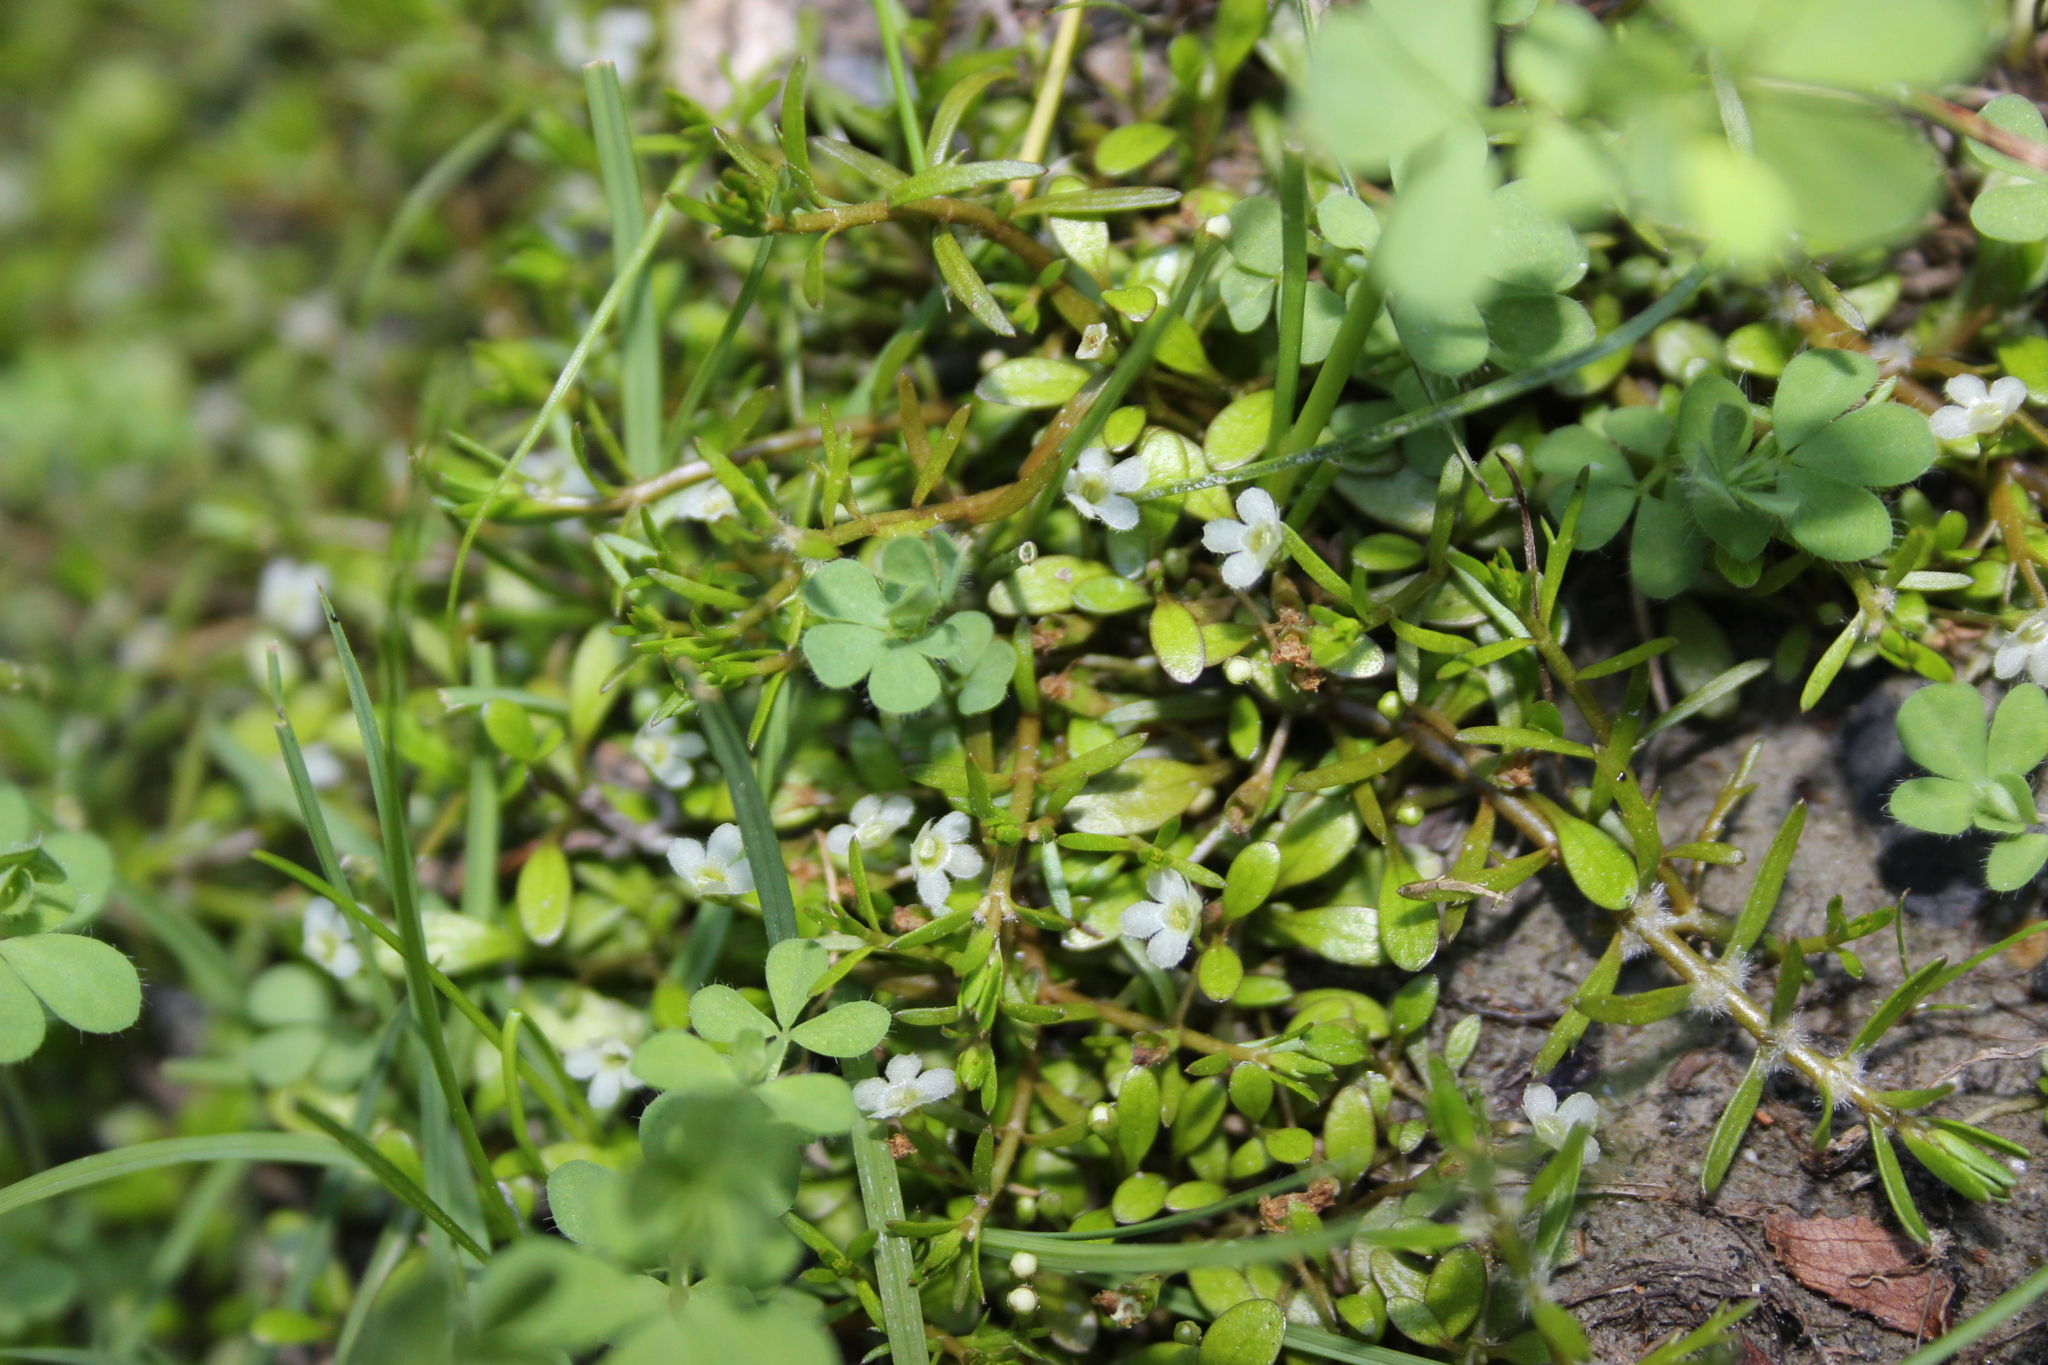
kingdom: Plantae
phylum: Tracheophyta
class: Magnoliopsida
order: Lamiales
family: Phrymaceae
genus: Glossostigma
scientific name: Glossostigma elatinoides
